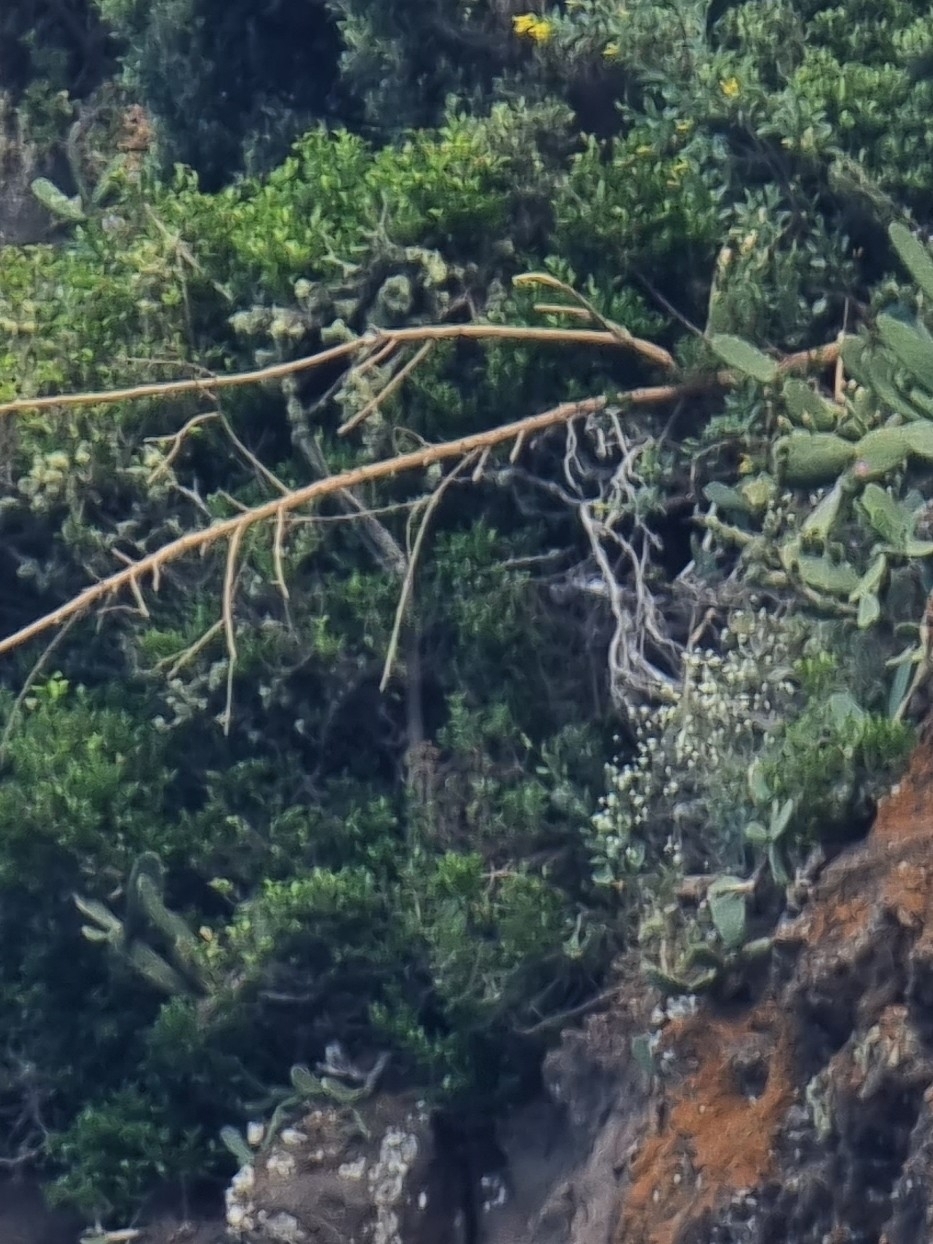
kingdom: Plantae
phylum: Tracheophyta
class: Magnoliopsida
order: Celastrales
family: Celastraceae
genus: Gymnosporia
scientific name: Gymnosporia dryandri
